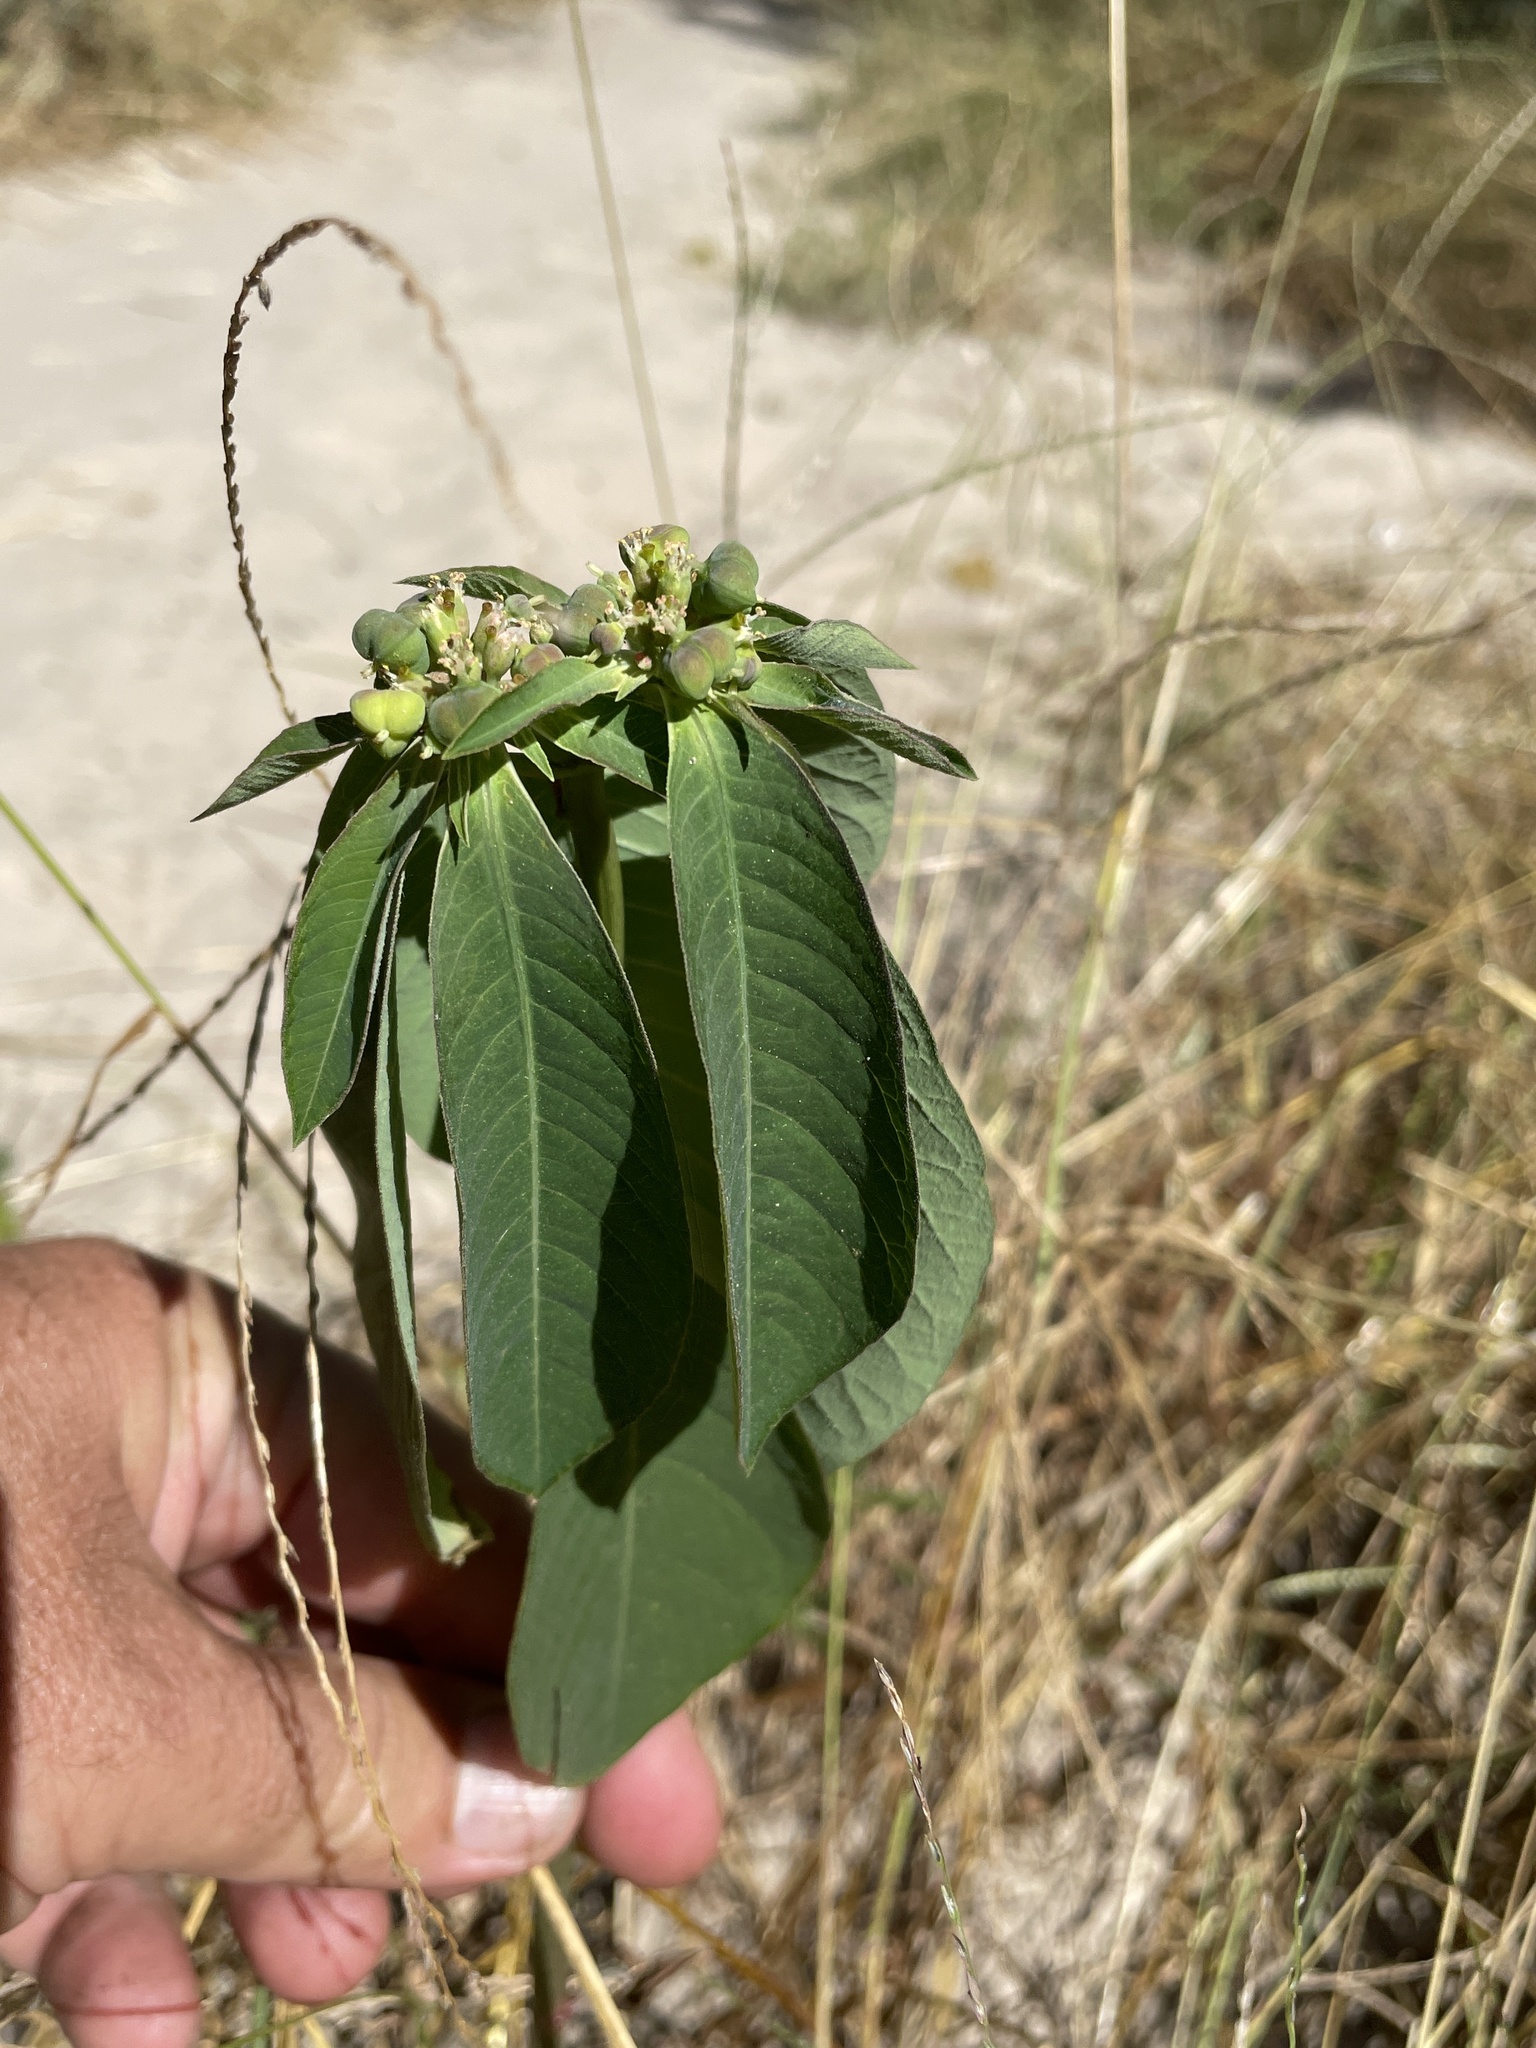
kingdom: Plantae
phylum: Tracheophyta
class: Magnoliopsida
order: Malpighiales
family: Euphorbiaceae
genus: Euphorbia
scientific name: Euphorbia heterophylla
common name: Mexican fireplant
